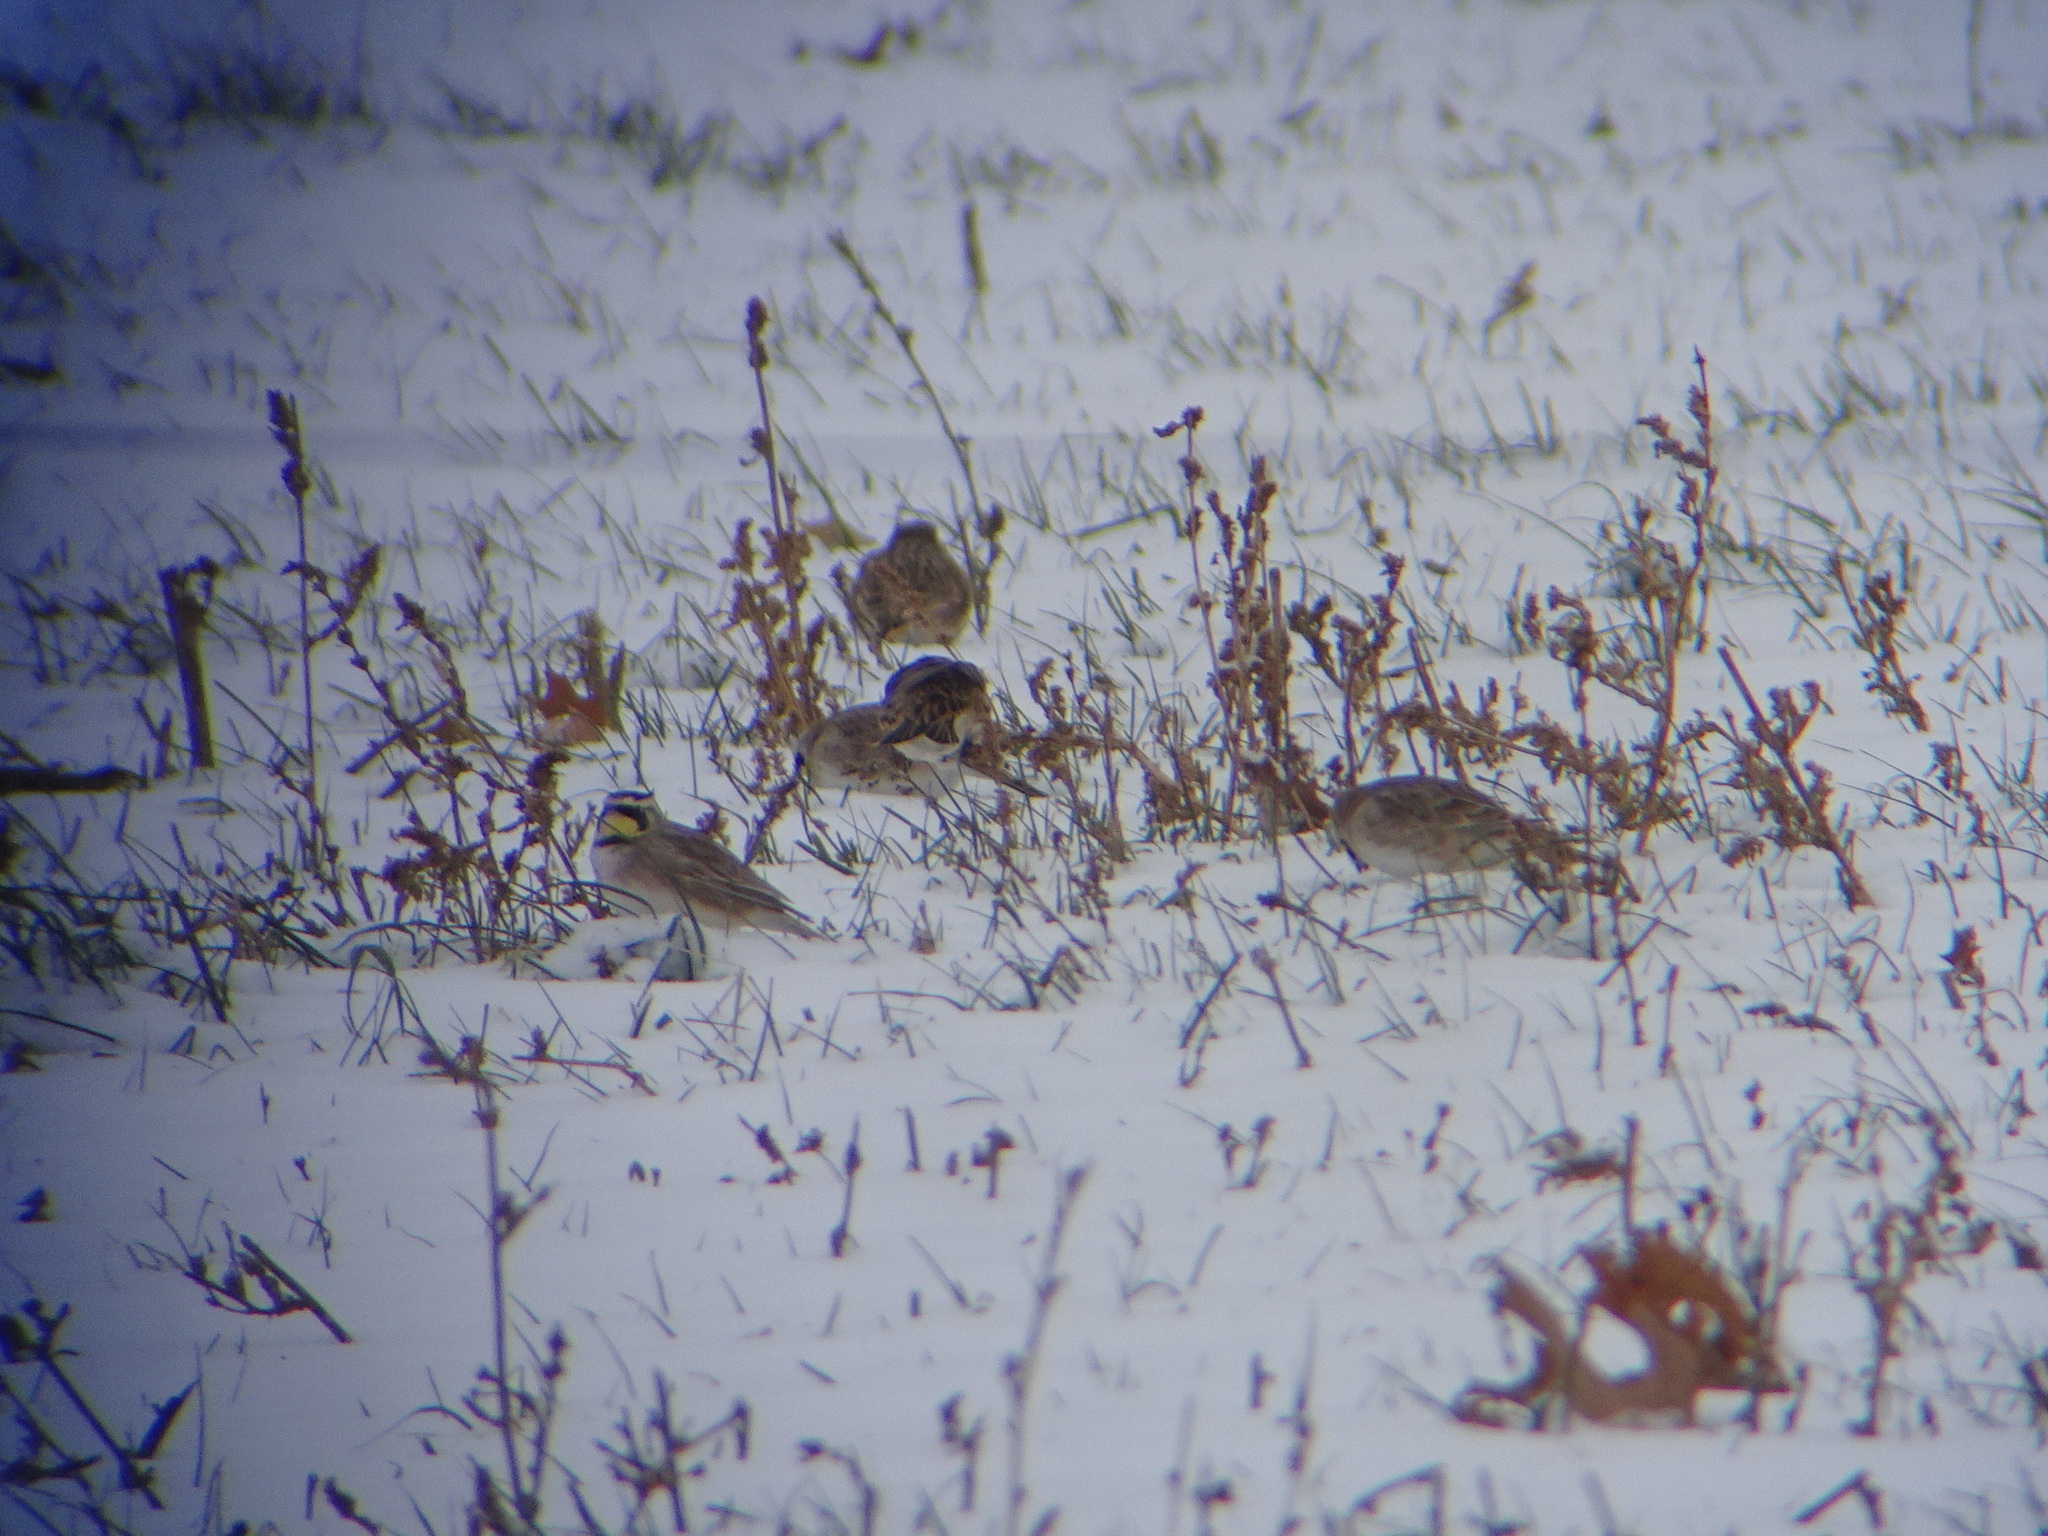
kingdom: Animalia
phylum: Chordata
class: Aves
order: Passeriformes
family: Calcariidae
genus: Calcarius
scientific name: Calcarius lapponicus
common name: Lapland longspur
